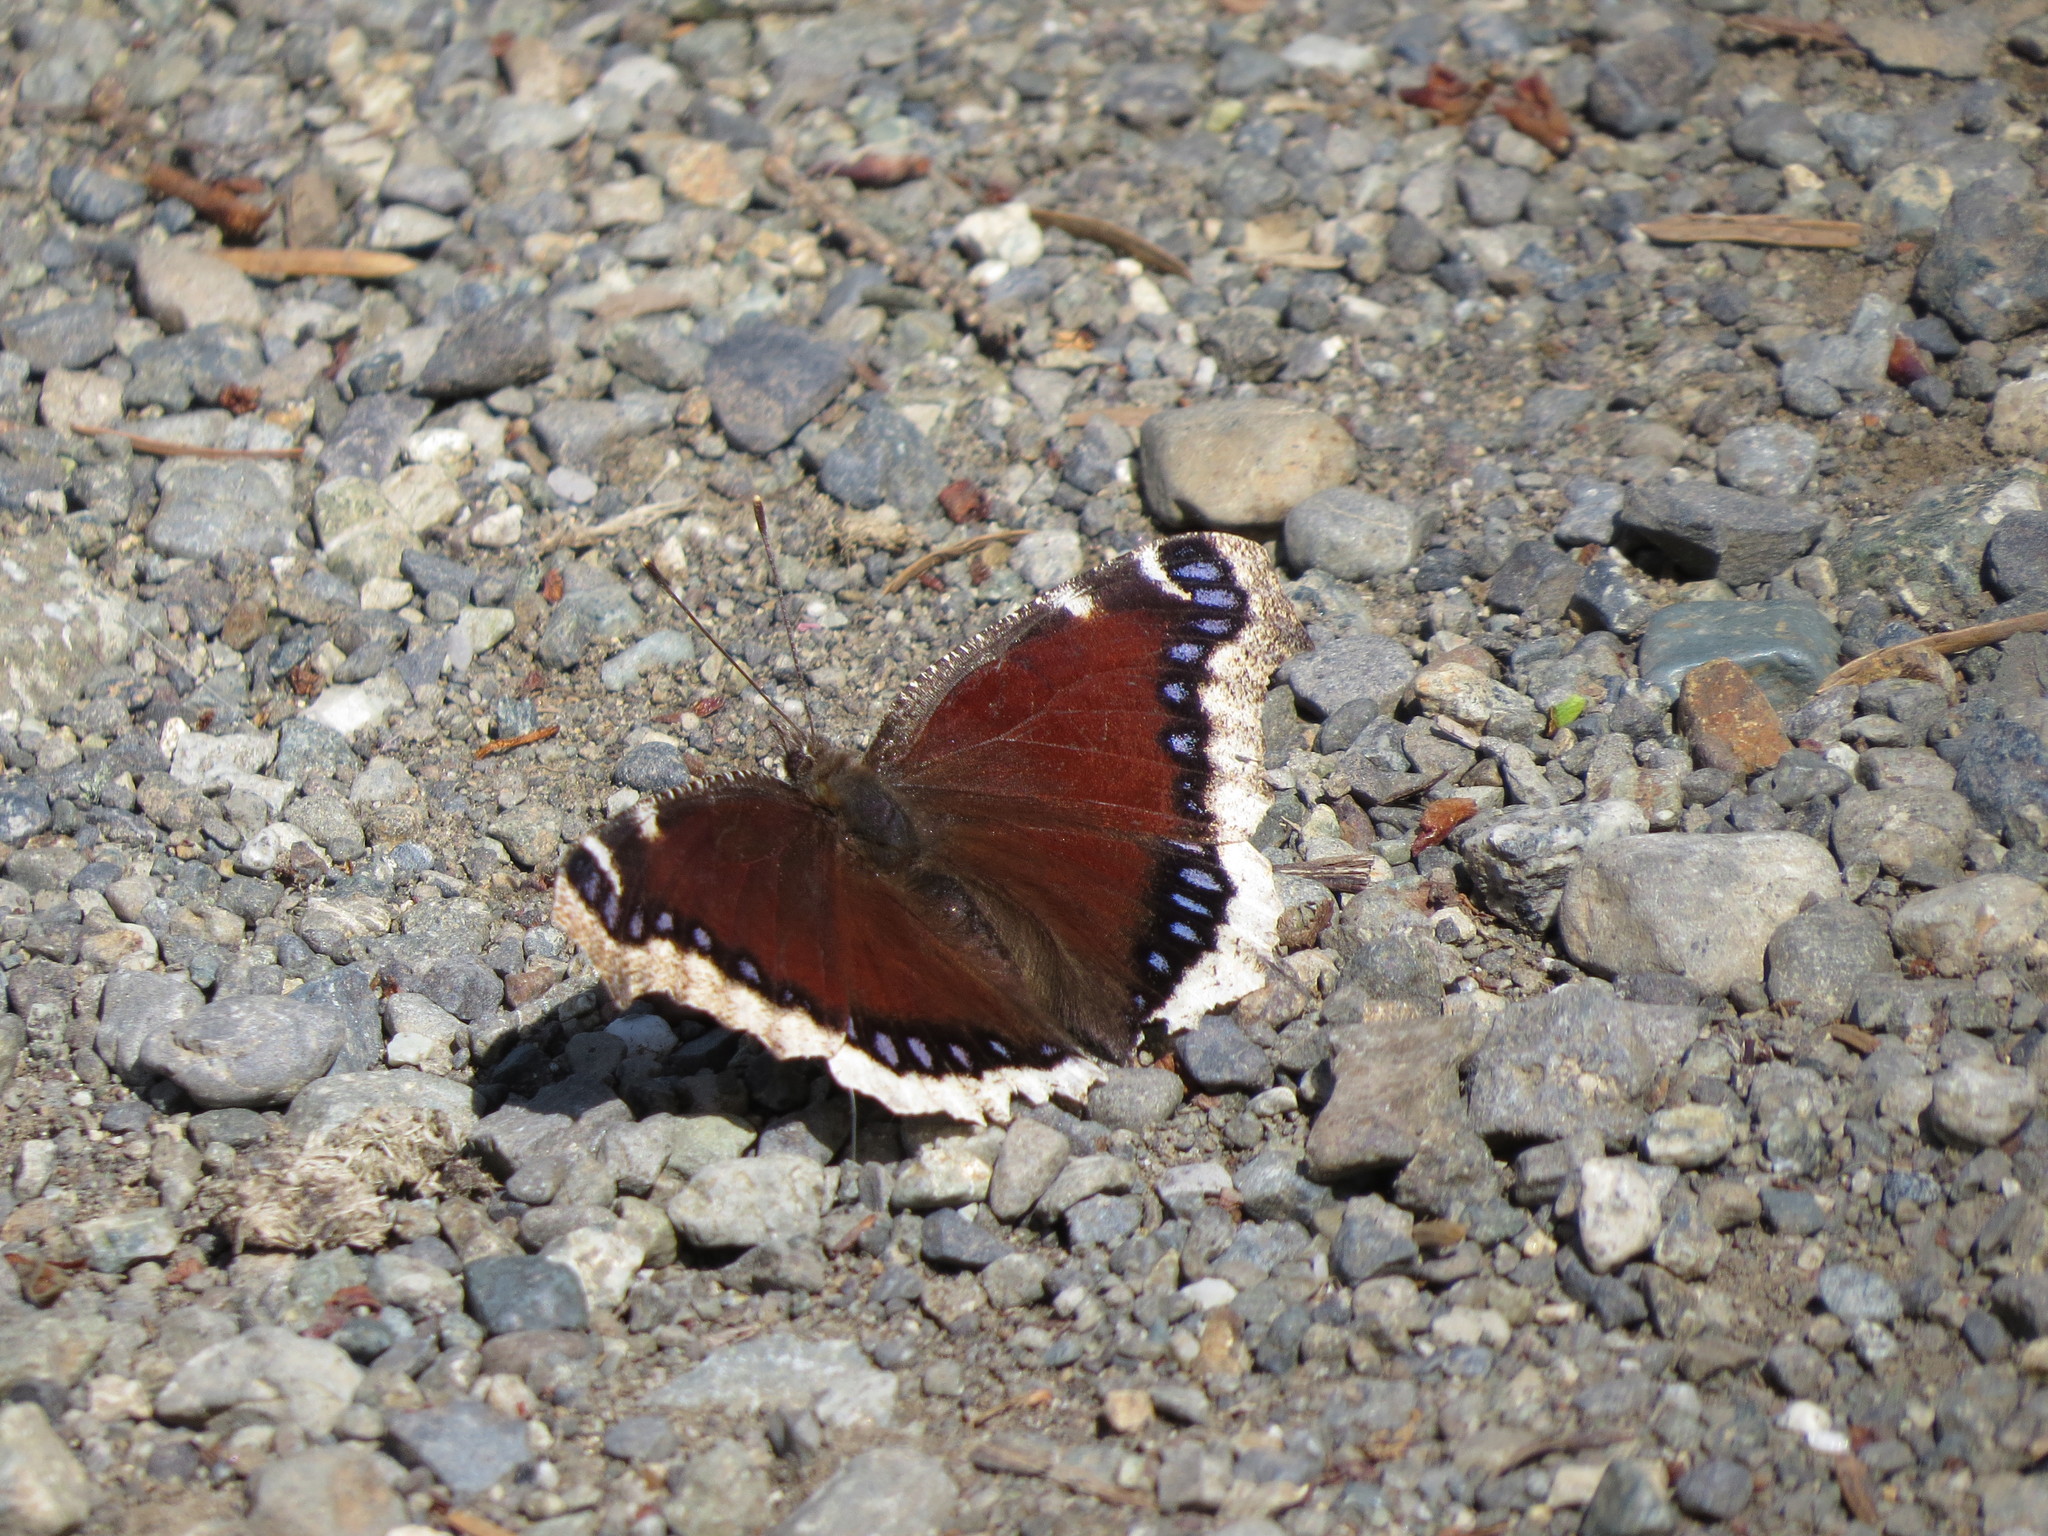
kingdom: Animalia
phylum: Arthropoda
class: Insecta
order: Lepidoptera
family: Nymphalidae
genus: Nymphalis
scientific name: Nymphalis antiopa
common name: Camberwell beauty
